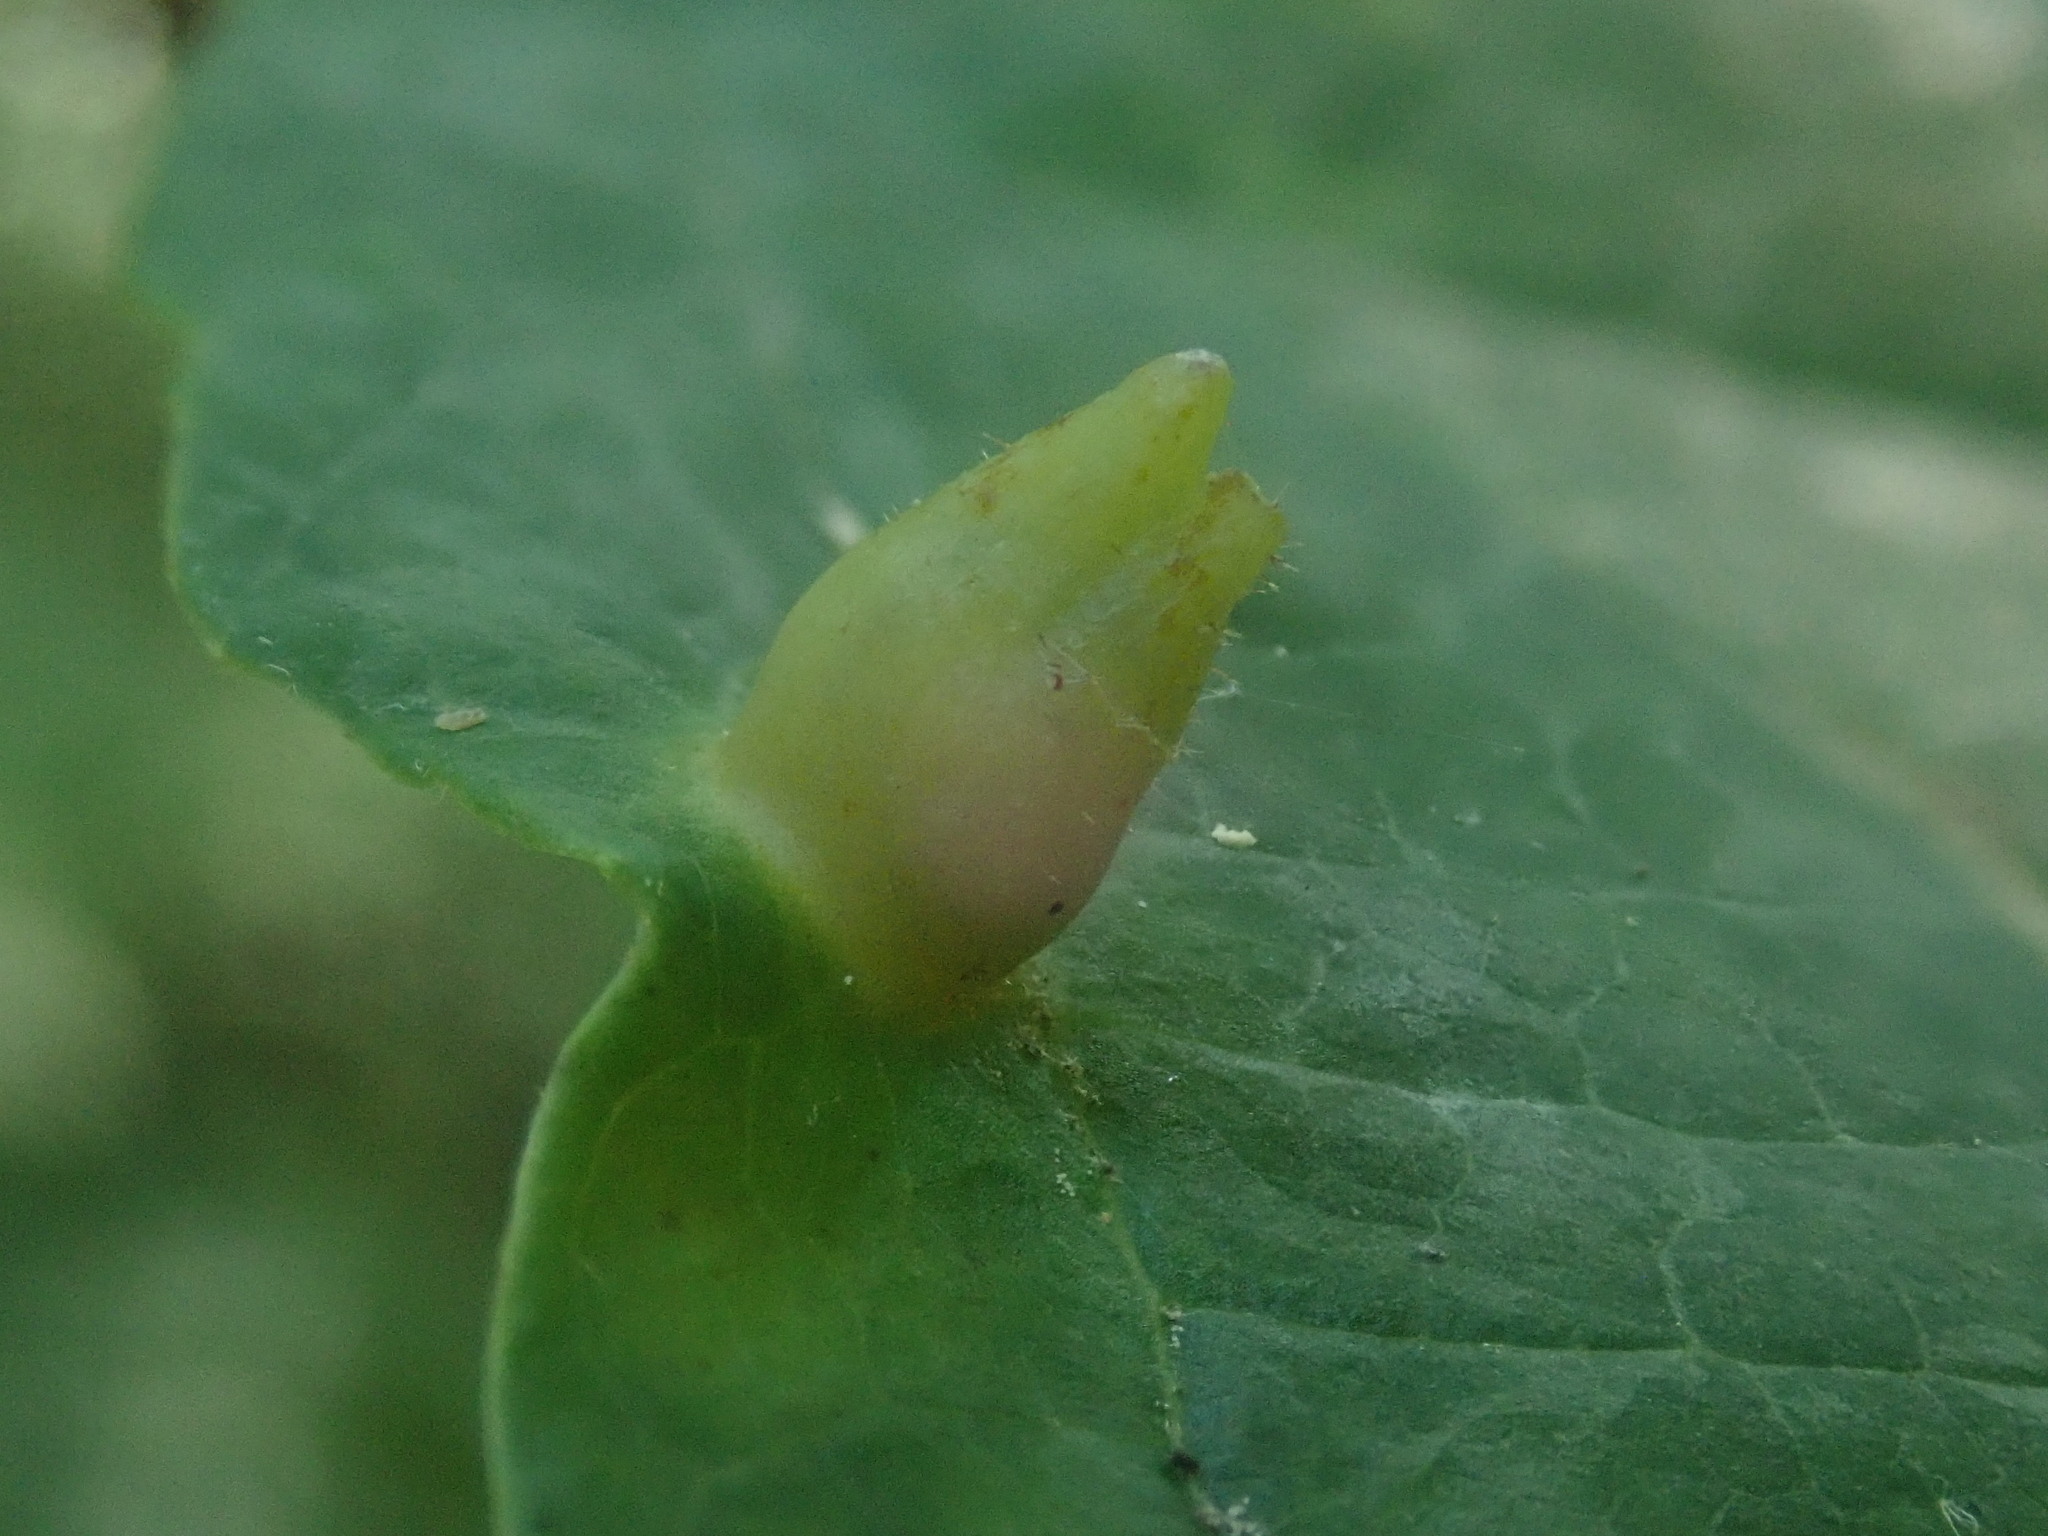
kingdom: Animalia
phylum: Arthropoda
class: Insecta
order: Hemiptera
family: Aphididae
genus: Hormaphis
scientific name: Hormaphis hamamelidis
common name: Witch-hazel cone gall aphid
